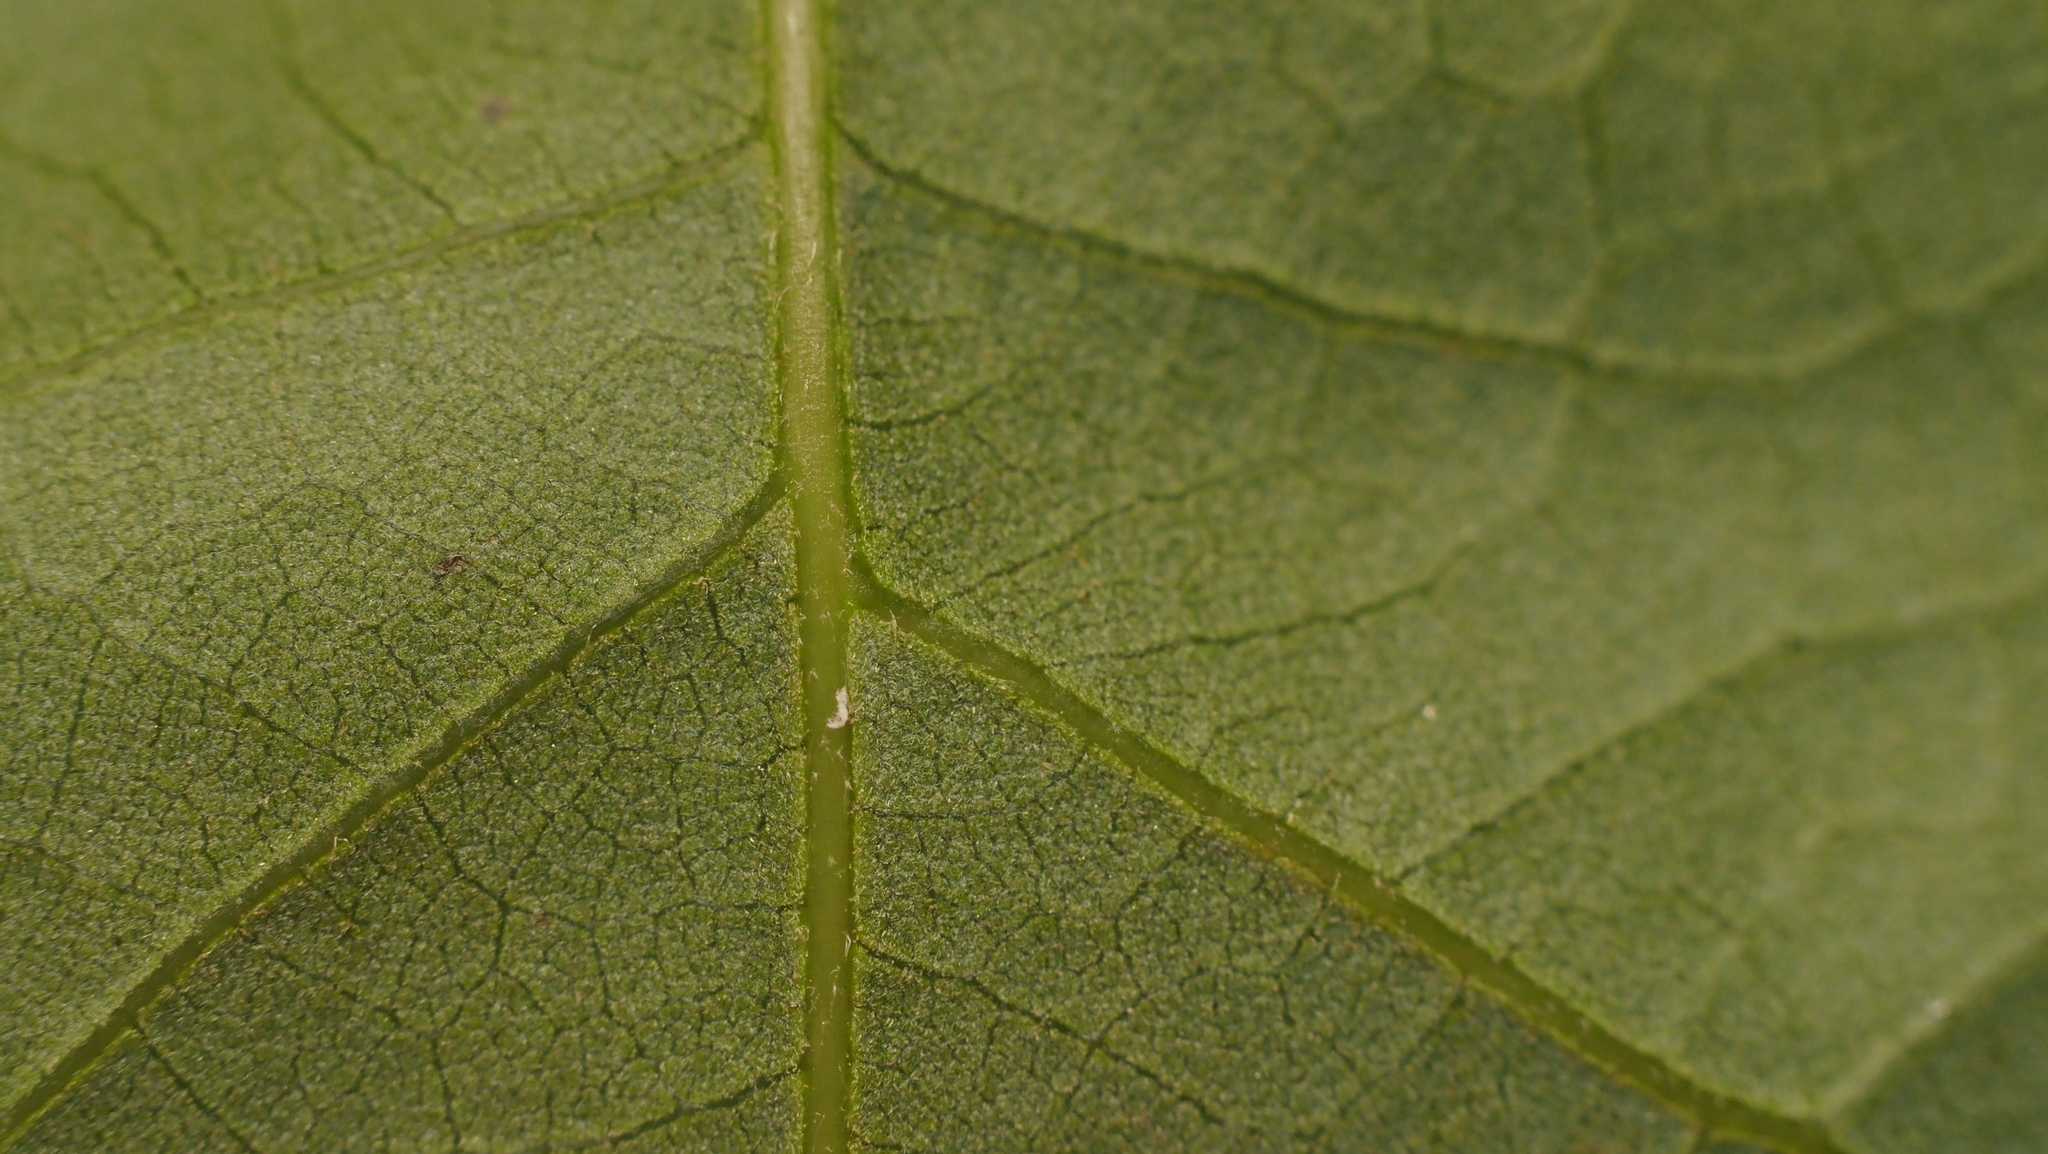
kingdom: Plantae
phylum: Tracheophyta
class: Magnoliopsida
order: Fagales
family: Fagaceae
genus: Quercus
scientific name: Quercus sinuata
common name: Durand oak
